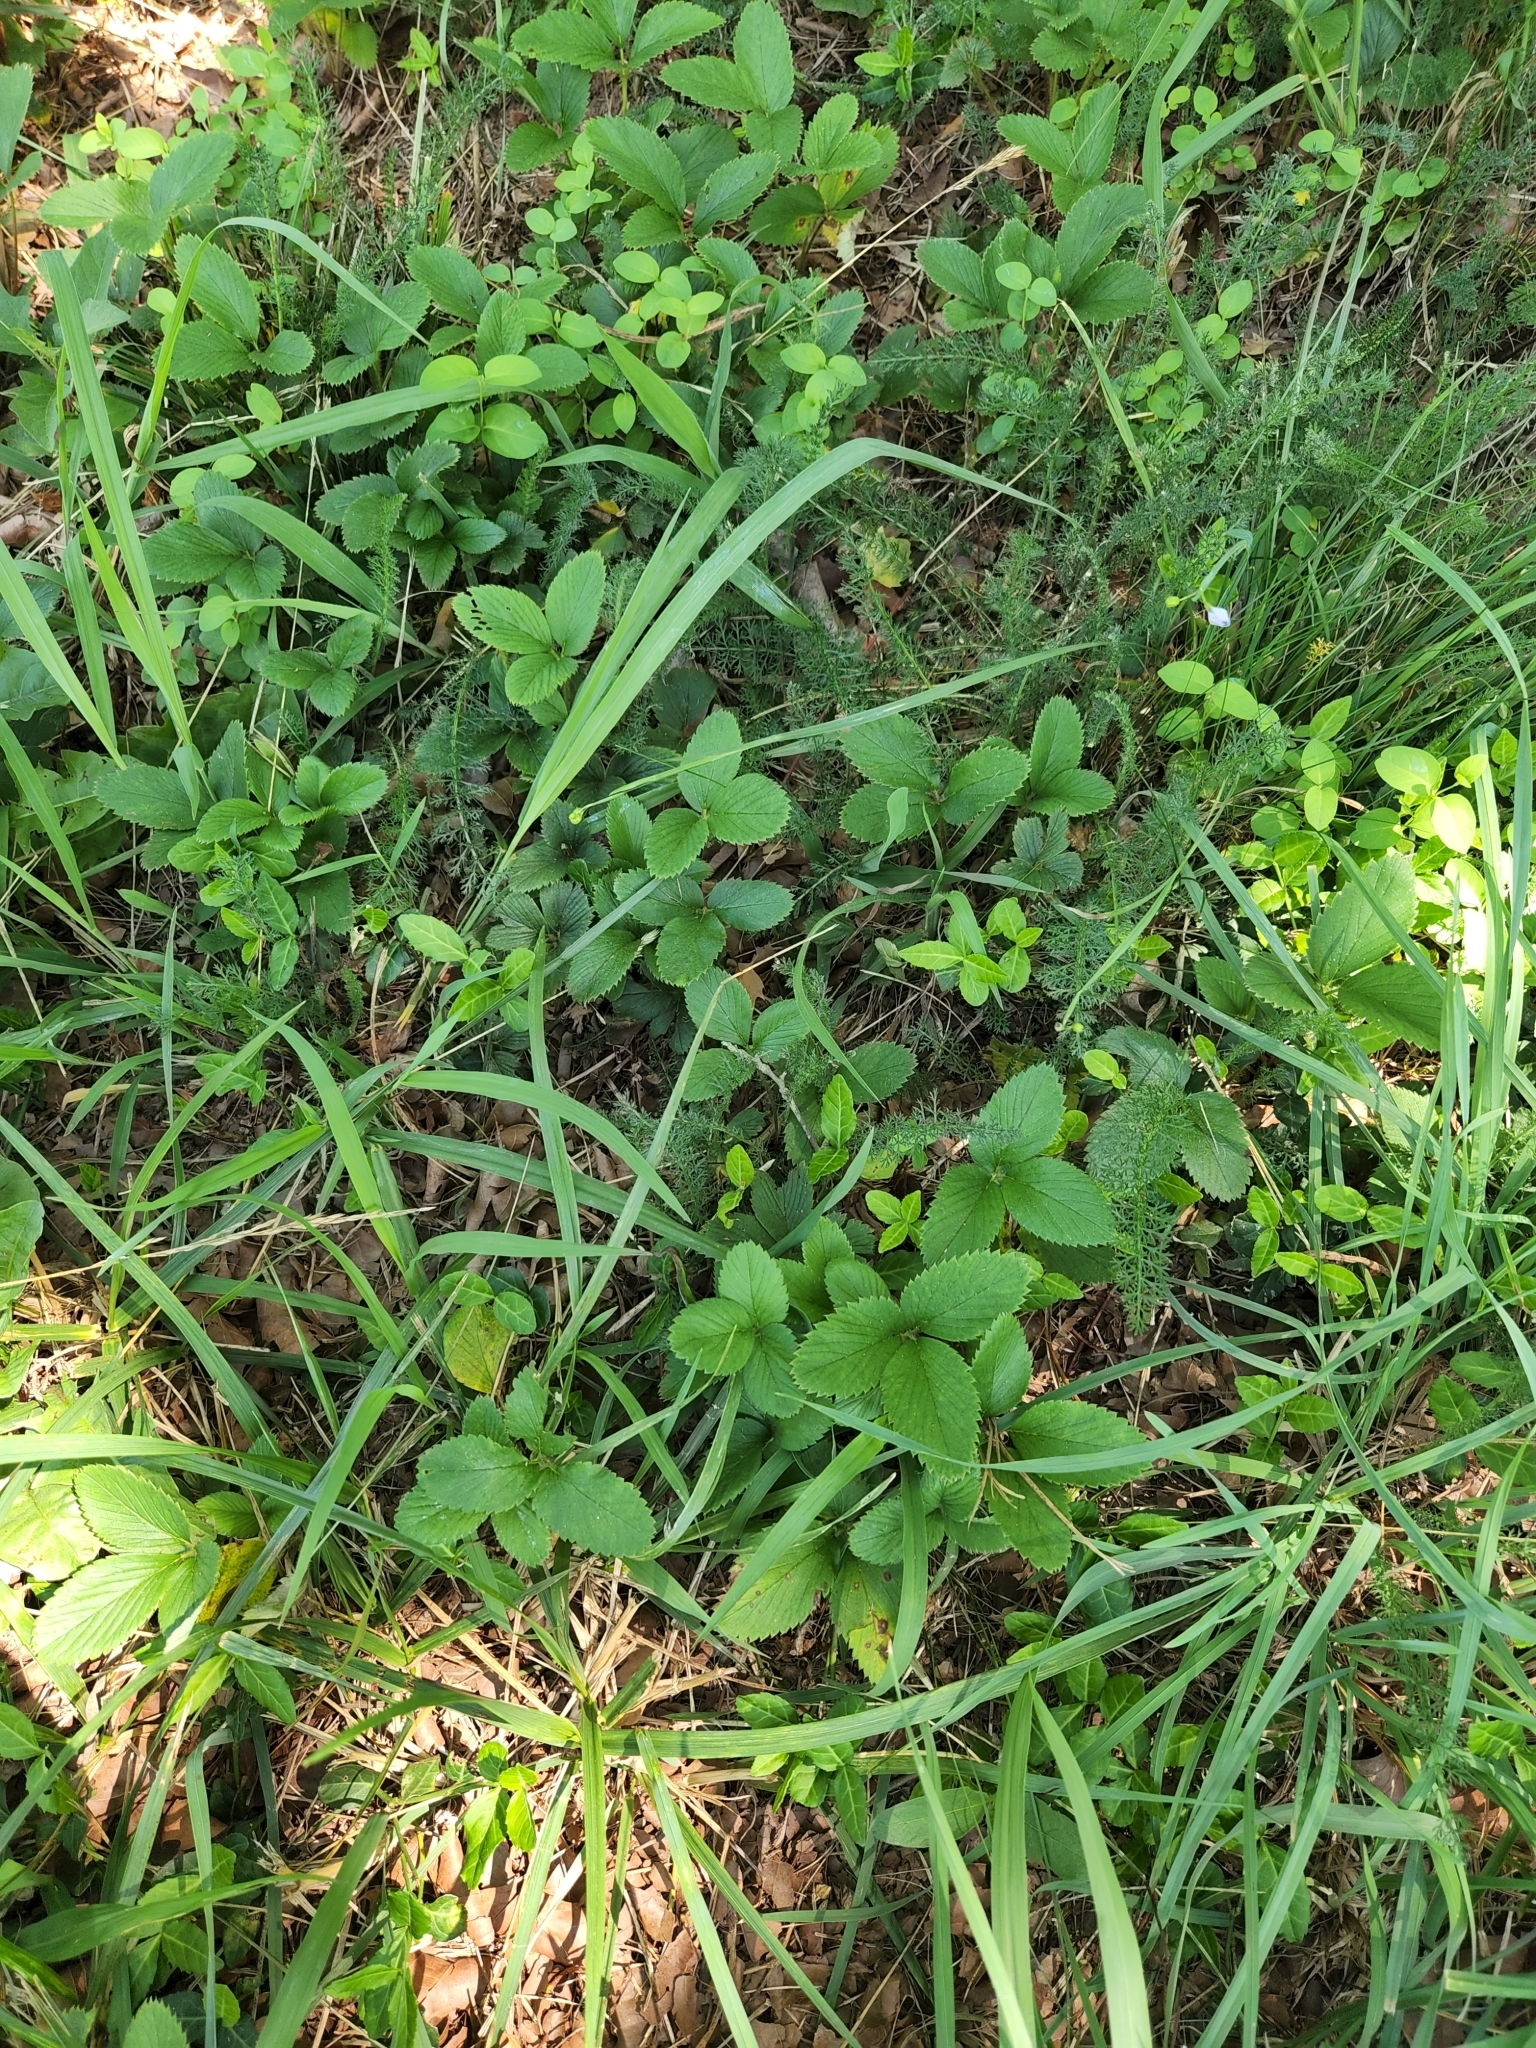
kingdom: Plantae
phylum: Tracheophyta
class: Magnoliopsida
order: Rosales
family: Rosaceae
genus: Fragaria
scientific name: Fragaria virginiana
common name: Thickleaved wild strawberry
